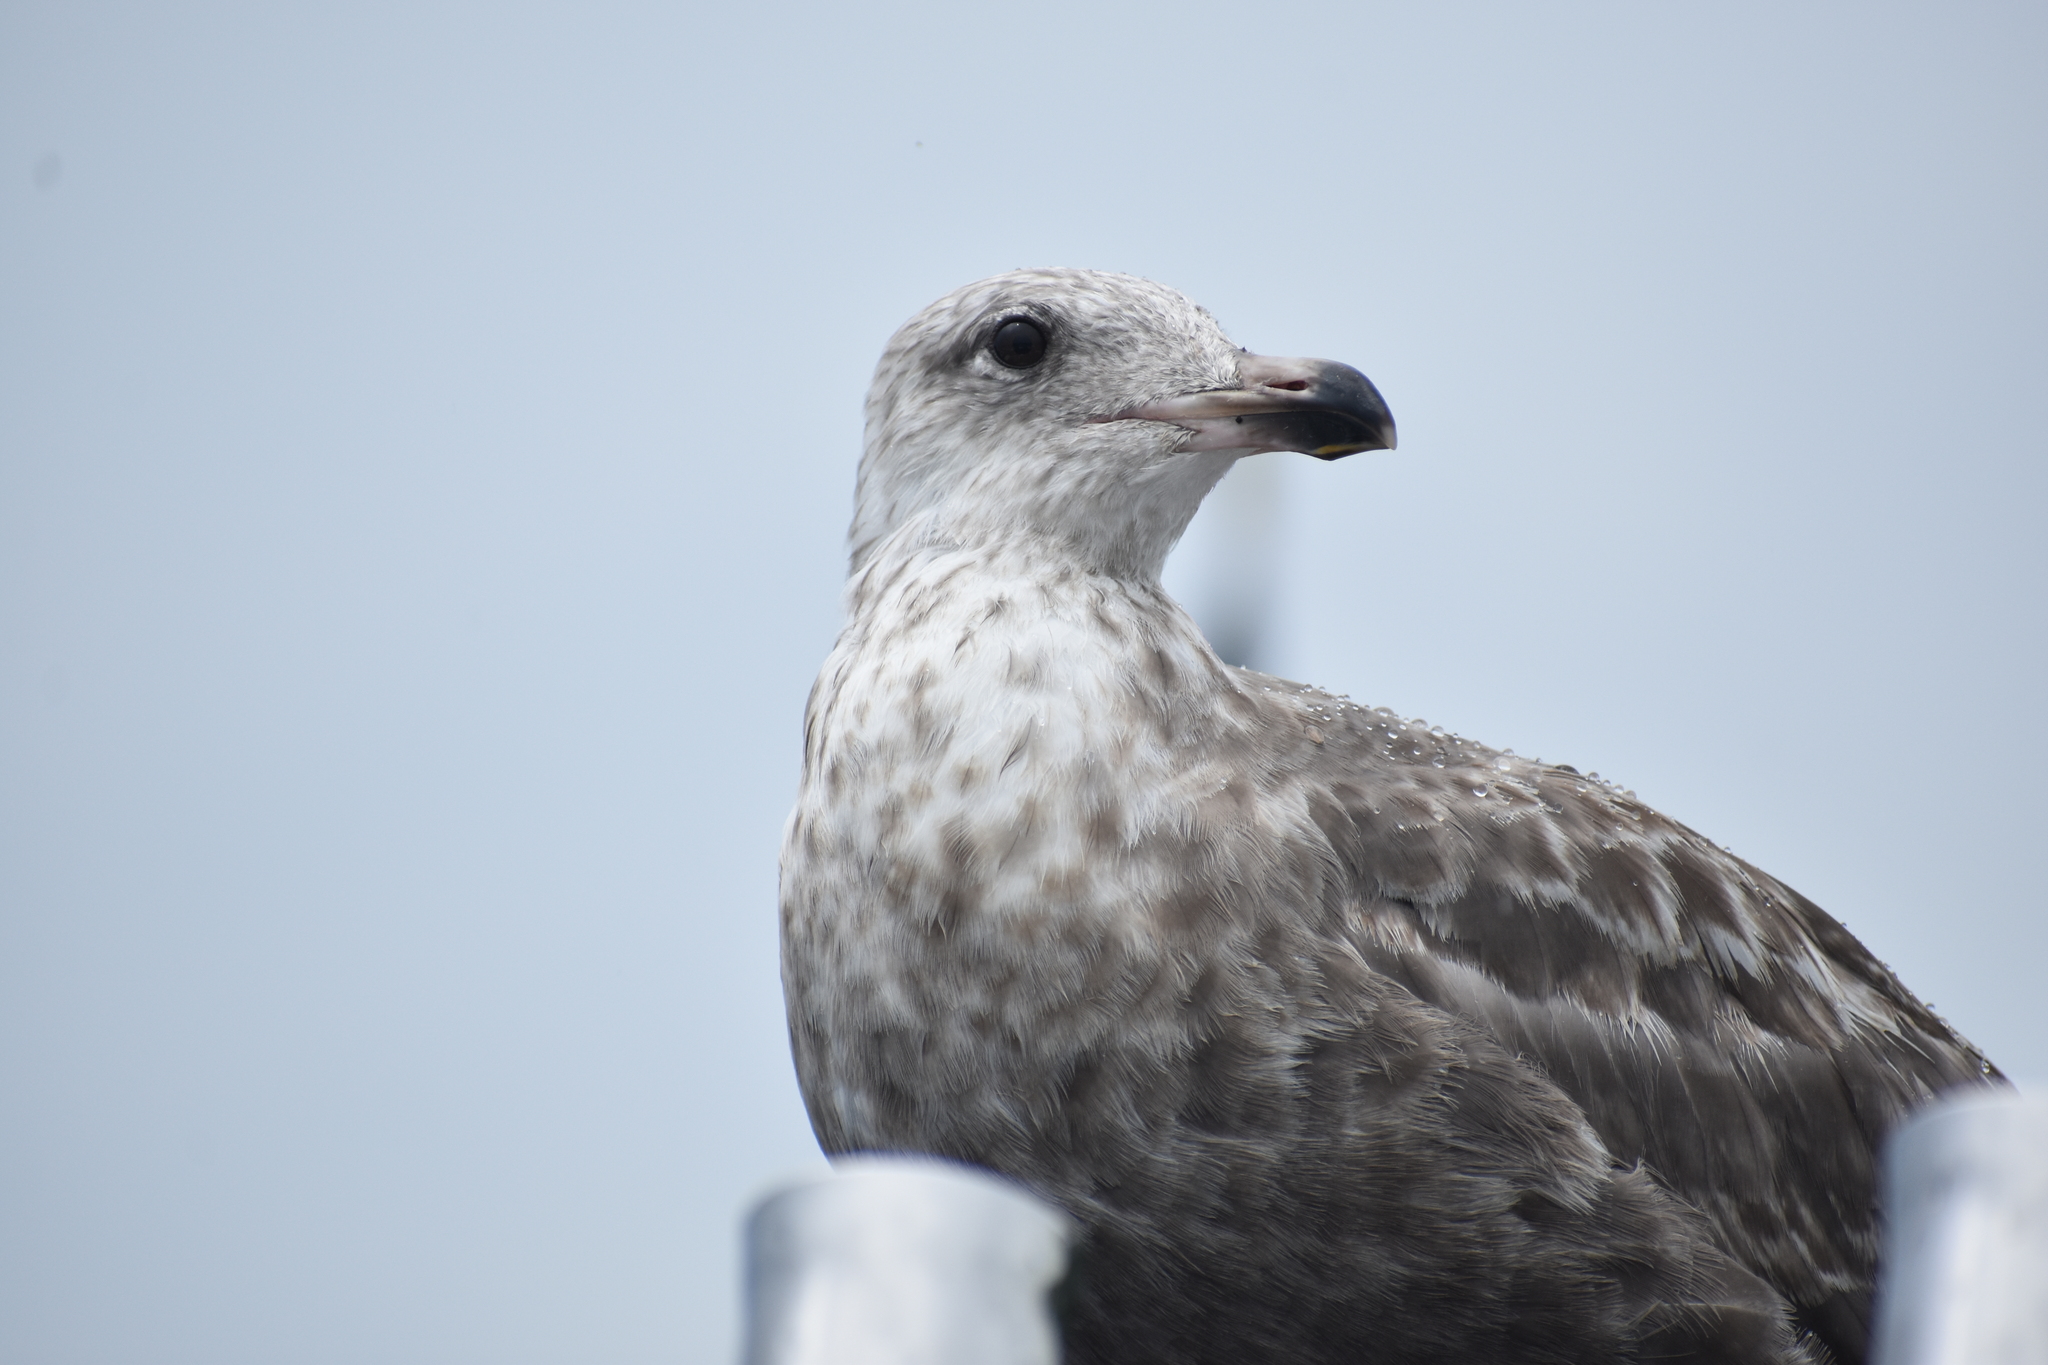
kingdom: Animalia
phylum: Chordata
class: Aves
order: Charadriiformes
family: Laridae
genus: Larus
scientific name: Larus argentatus
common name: Herring gull
